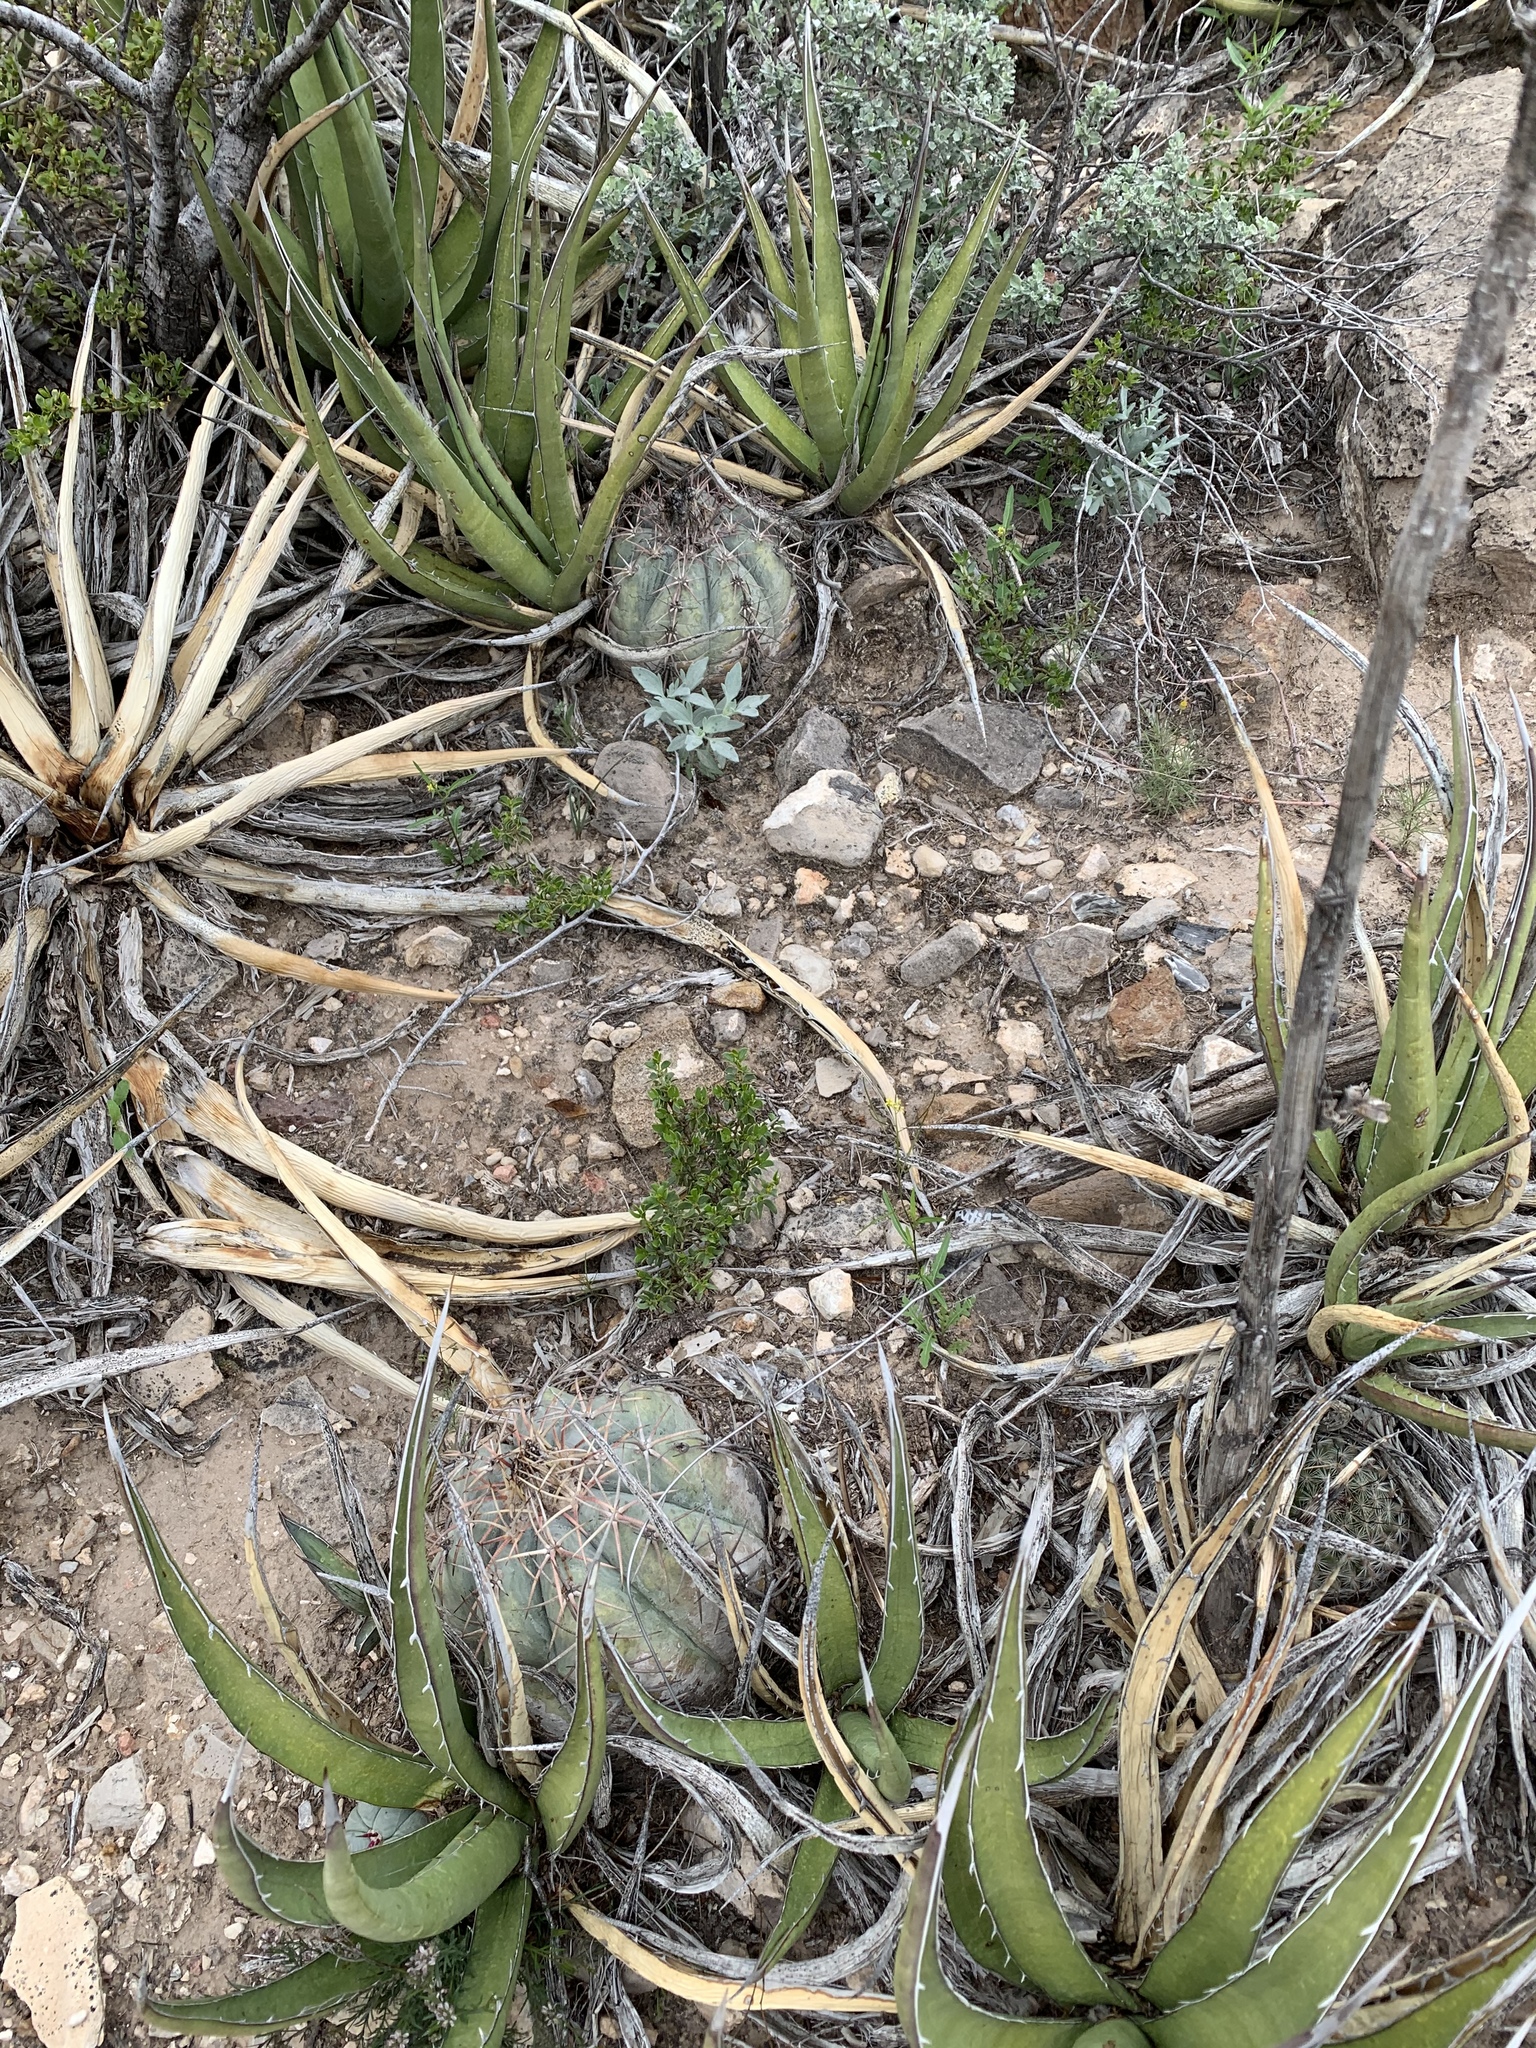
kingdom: Plantae
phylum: Tracheophyta
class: Magnoliopsida
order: Caryophyllales
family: Cactaceae
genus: Echinocactus
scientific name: Echinocactus horizonthalonius
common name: Devilshead
